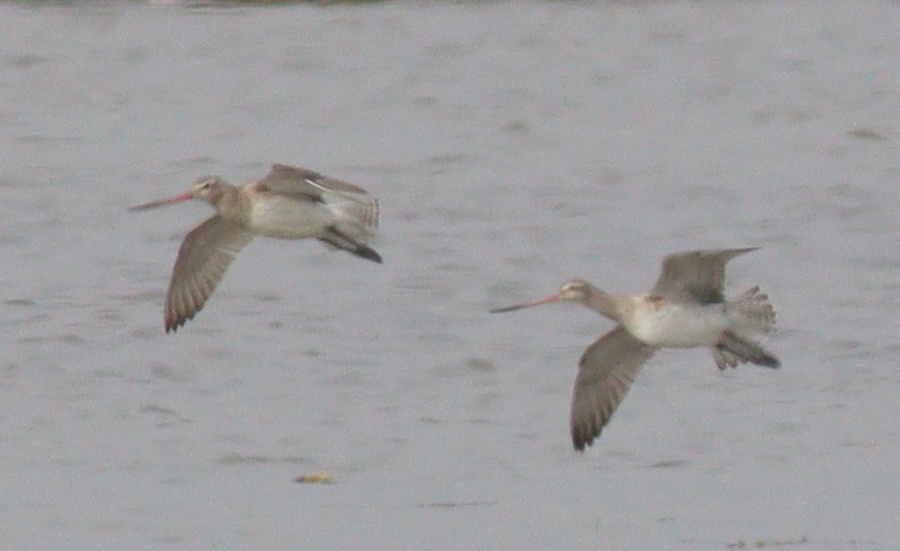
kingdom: Animalia
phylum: Chordata
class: Aves
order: Charadriiformes
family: Scolopacidae
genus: Limosa
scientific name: Limosa lapponica
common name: Bar-tailed godwit
